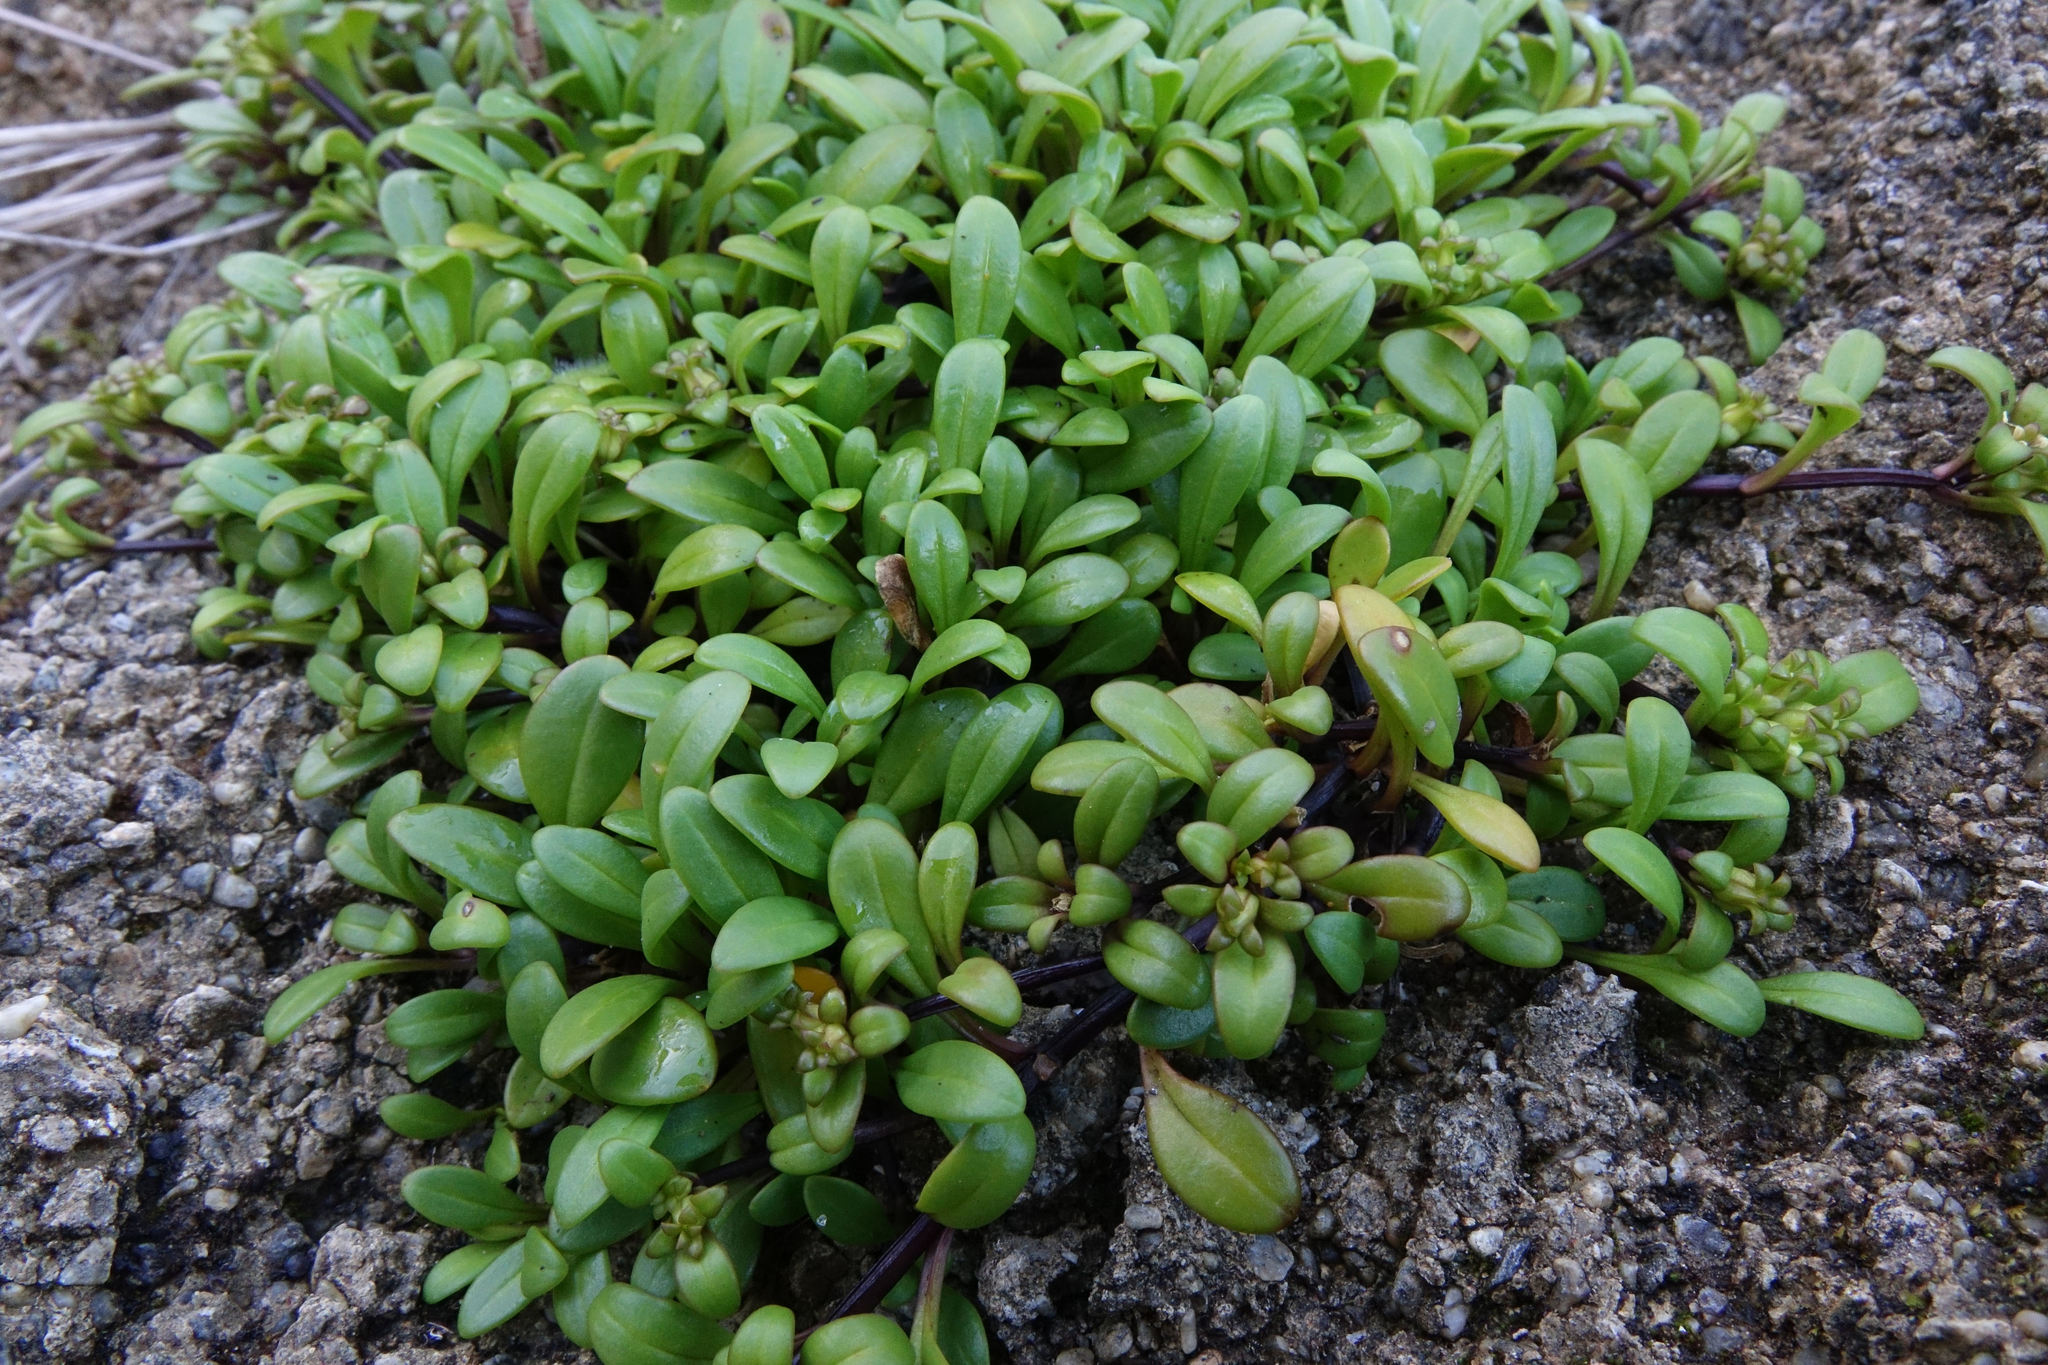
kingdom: Plantae
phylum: Tracheophyta
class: Magnoliopsida
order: Gentianales
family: Gentianaceae
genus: Gentianella
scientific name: Gentianella saxosa
